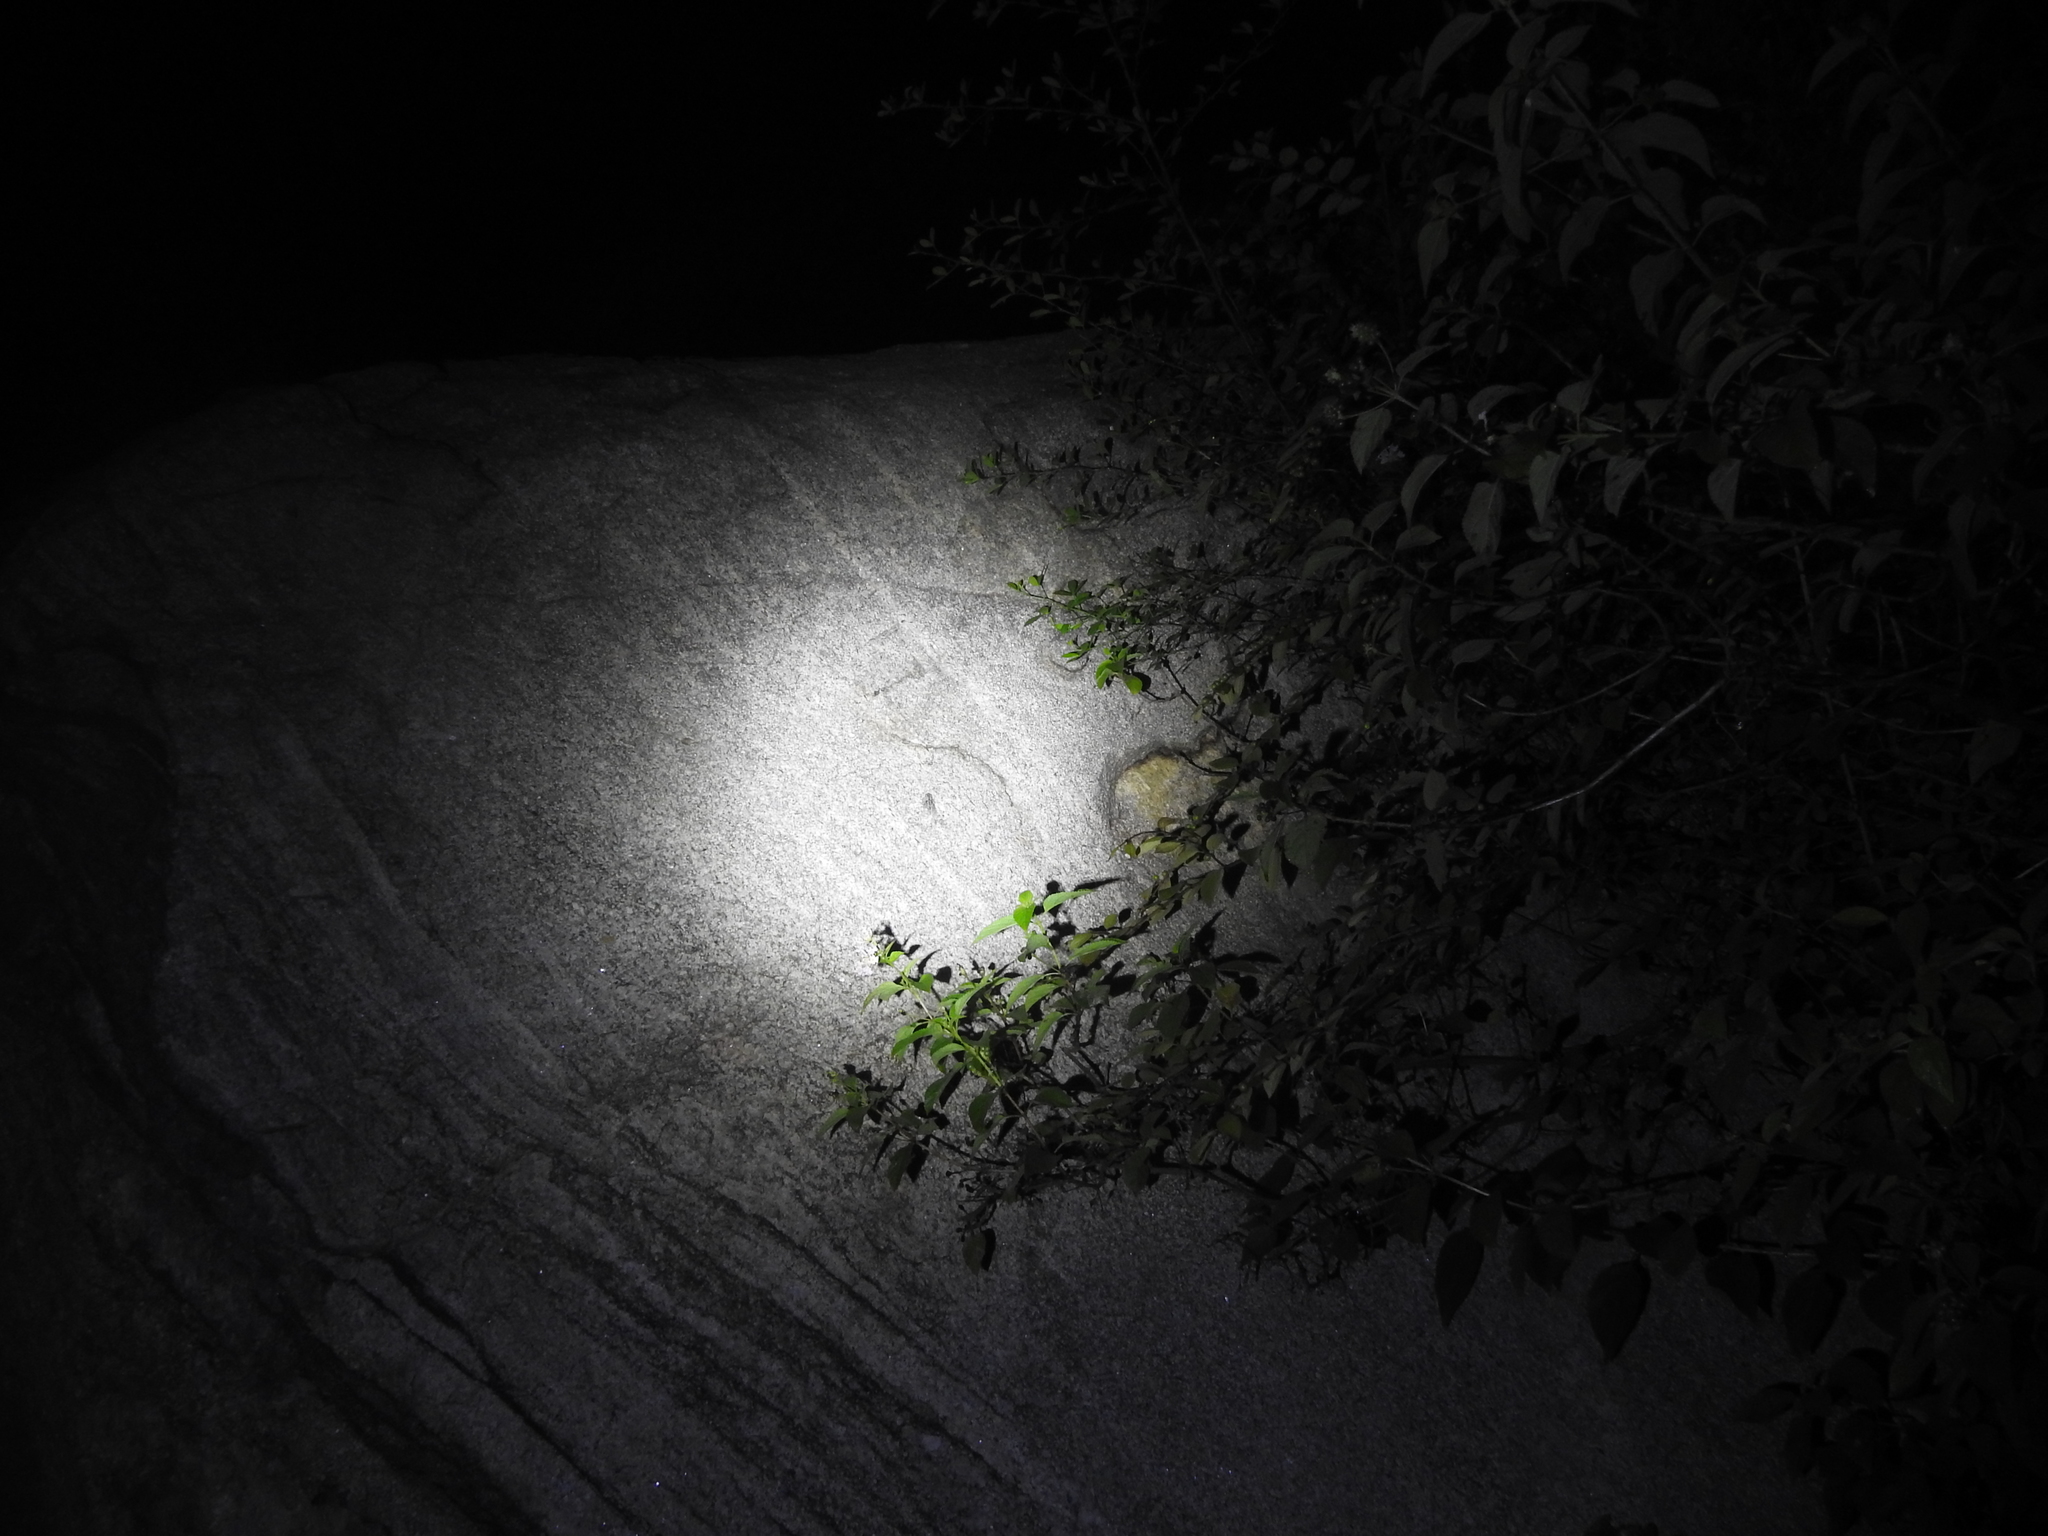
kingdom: Animalia
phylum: Chordata
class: Amphibia
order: Anura
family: Microhylidae
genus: Uperodon
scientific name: Uperodon variegatus
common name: Eluru dot frog
